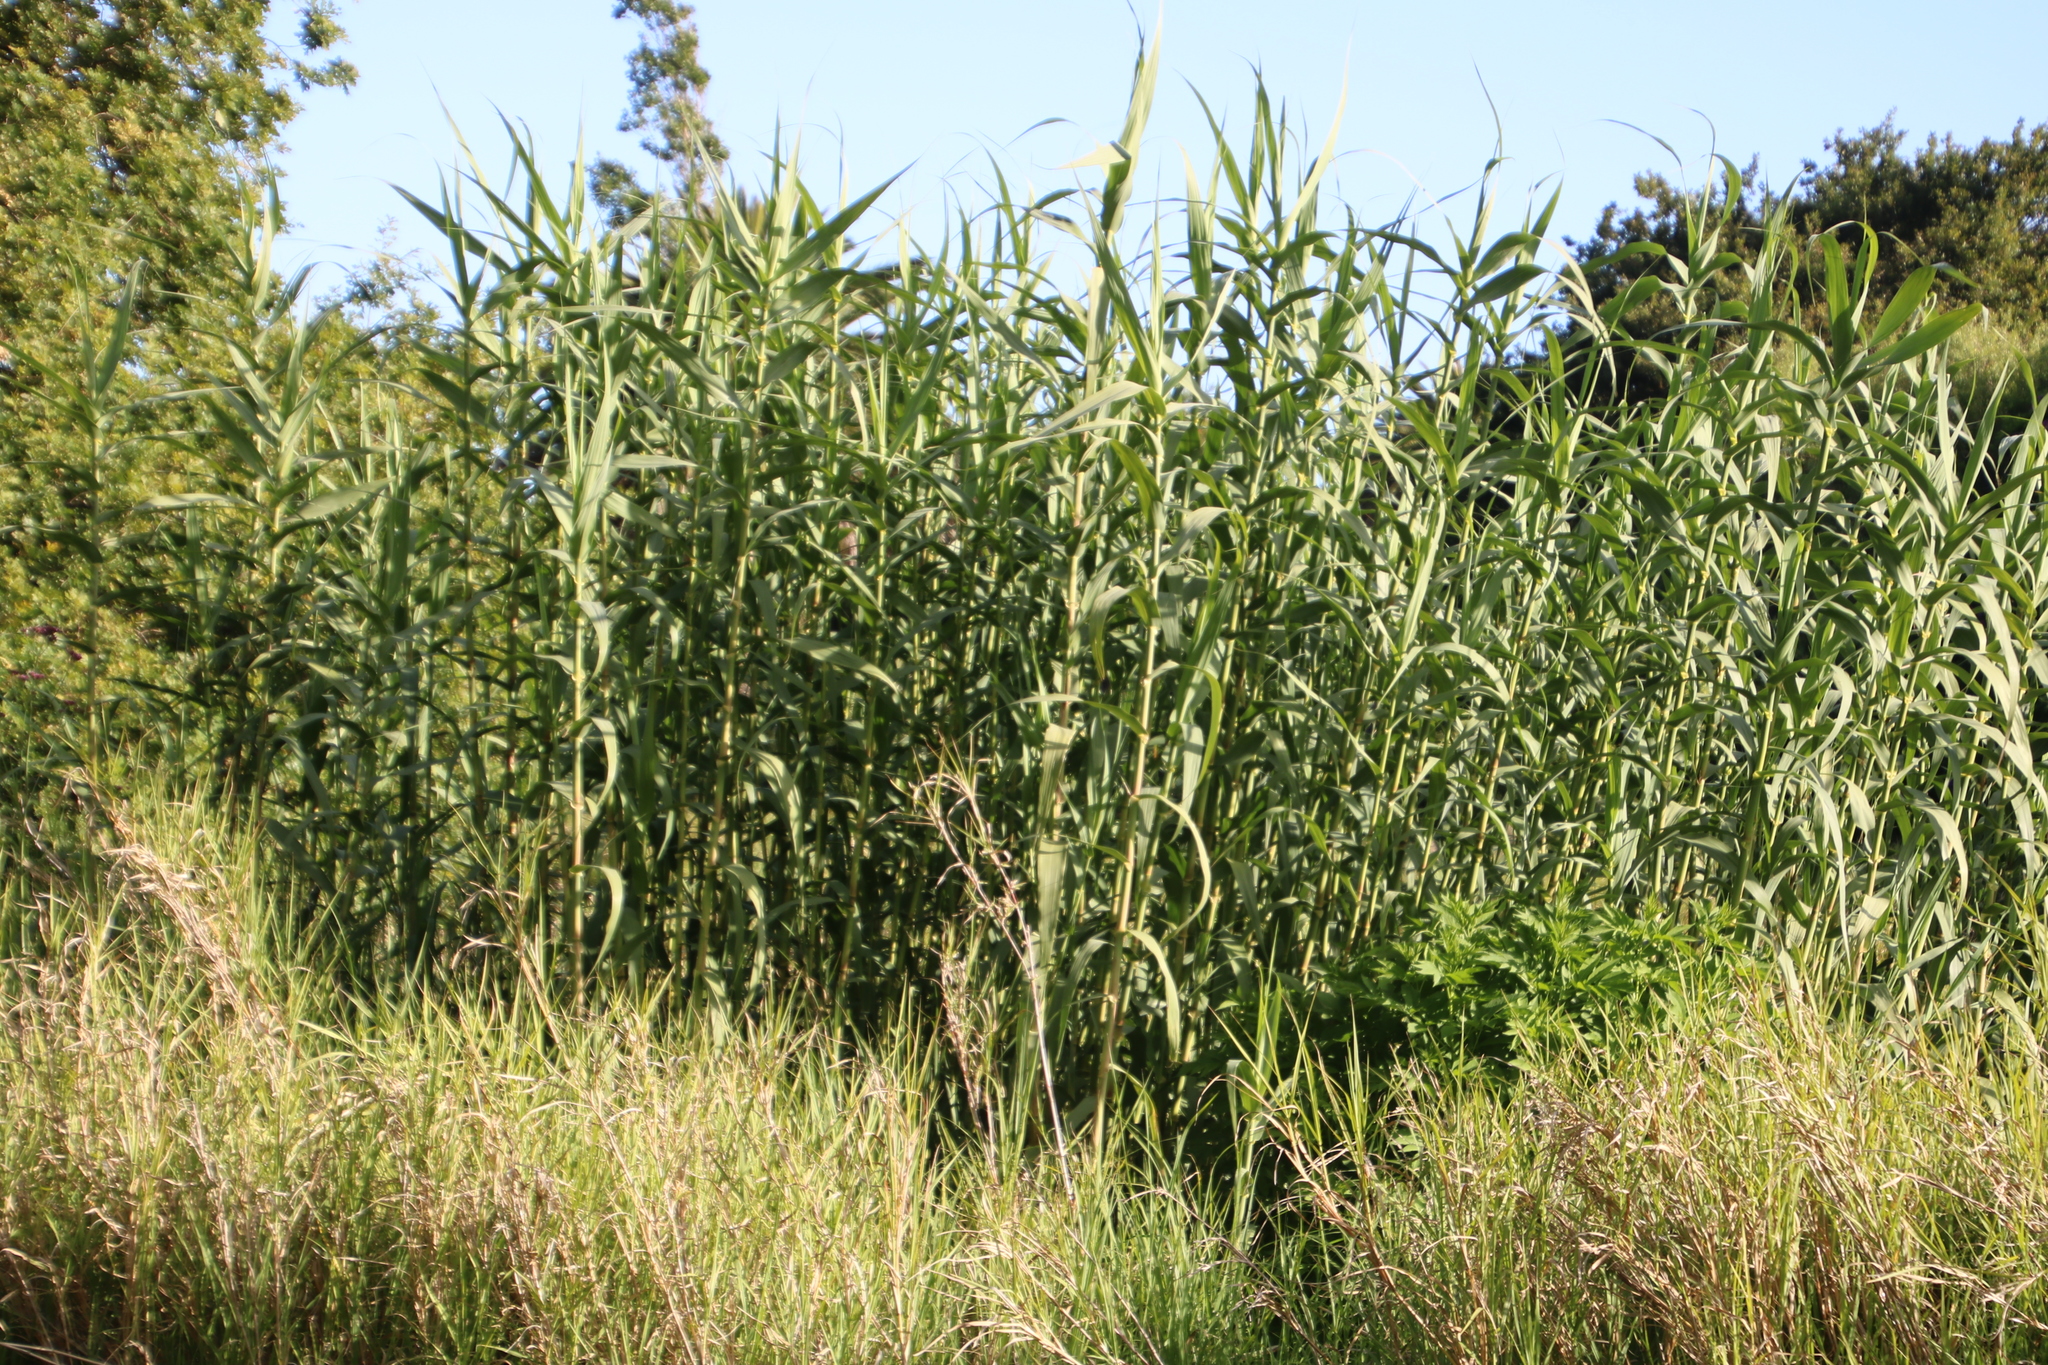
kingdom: Plantae
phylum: Tracheophyta
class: Liliopsida
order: Poales
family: Poaceae
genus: Arundo
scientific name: Arundo donax
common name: Giant reed
